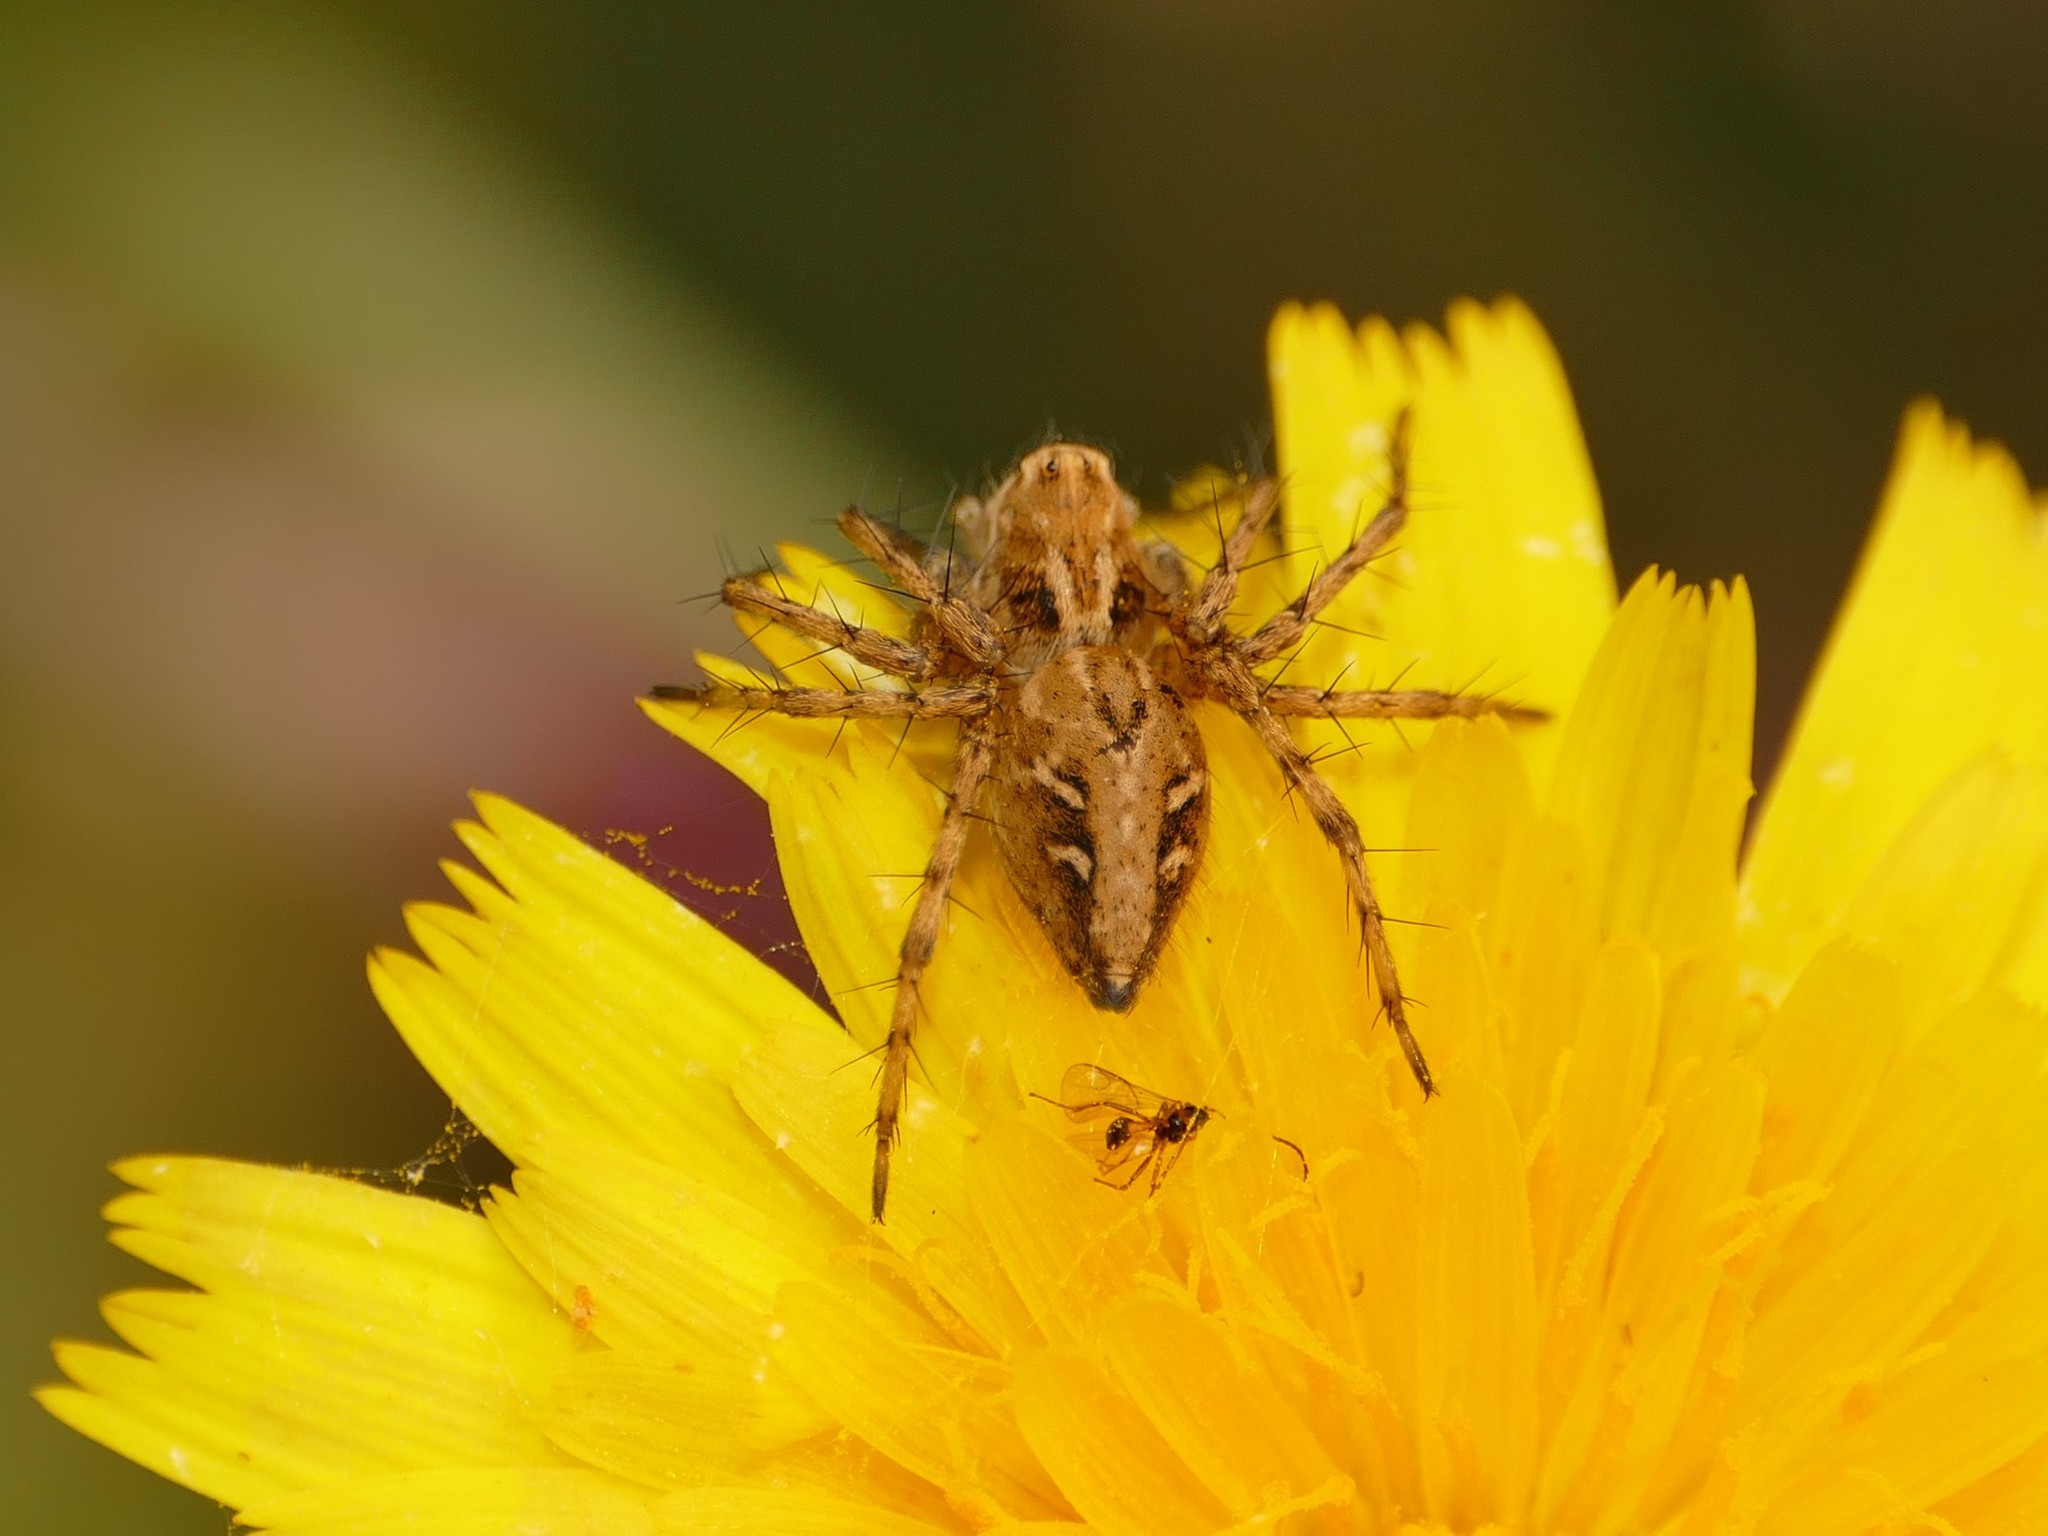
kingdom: Animalia
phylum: Arthropoda
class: Arachnida
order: Araneae
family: Oxyopidae
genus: Oxyopes
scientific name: Oxyopes heterophthalmus
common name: Lynx spider
